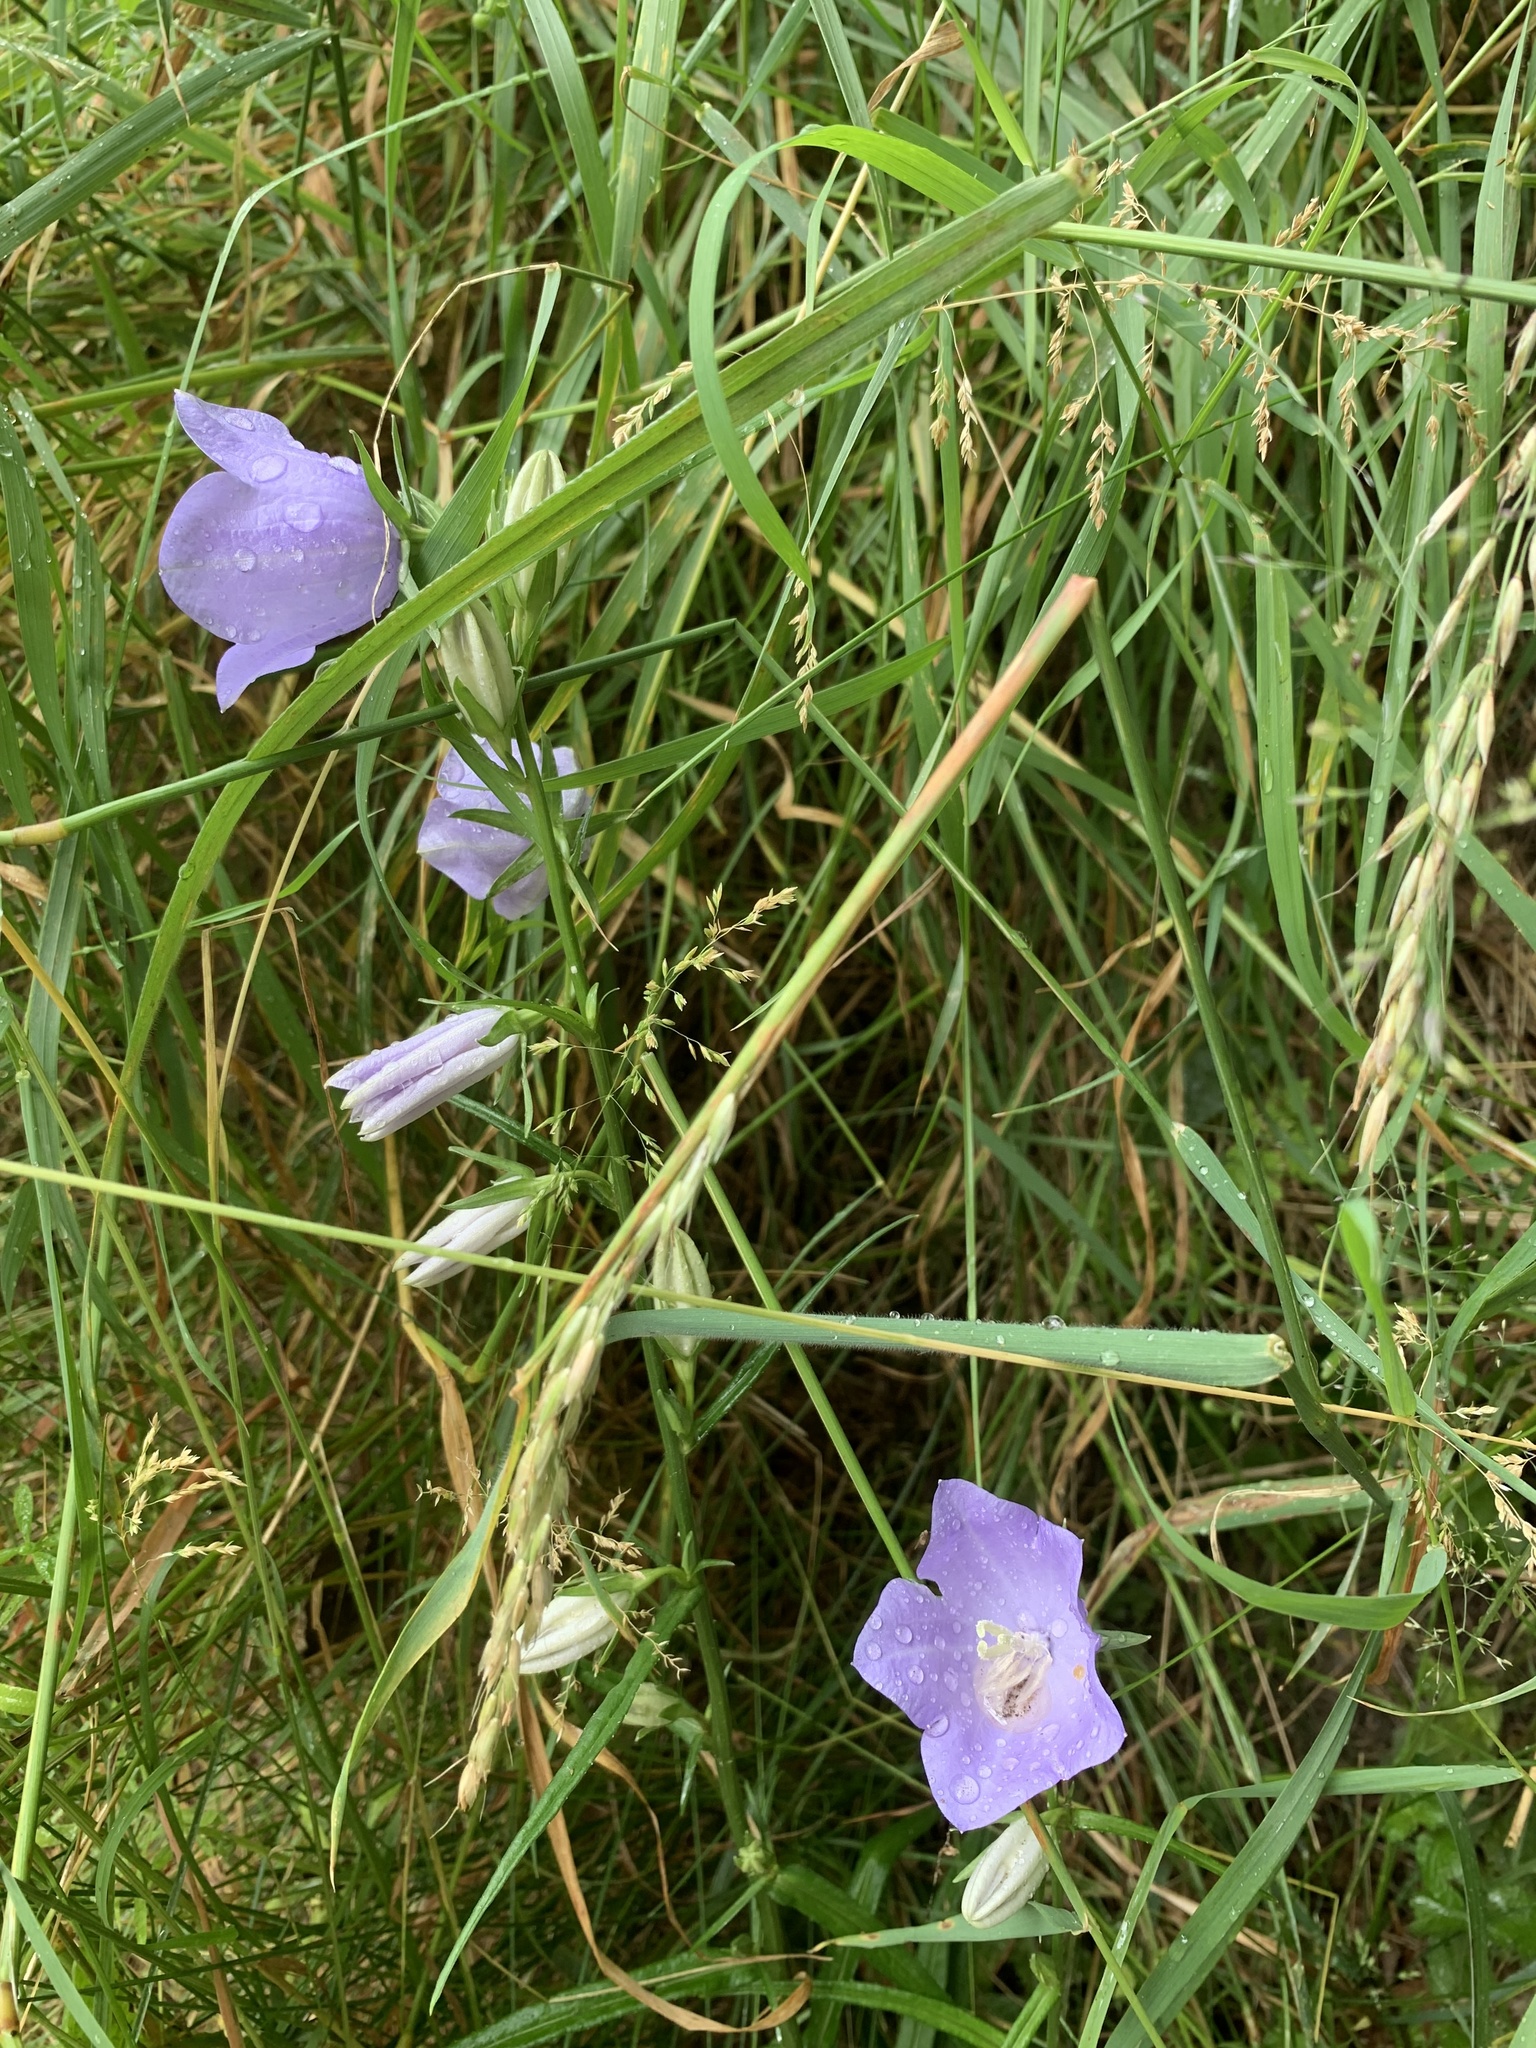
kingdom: Plantae
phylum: Tracheophyta
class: Magnoliopsida
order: Asterales
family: Campanulaceae
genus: Campanula
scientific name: Campanula persicifolia
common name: Peach-leaved bellflower
